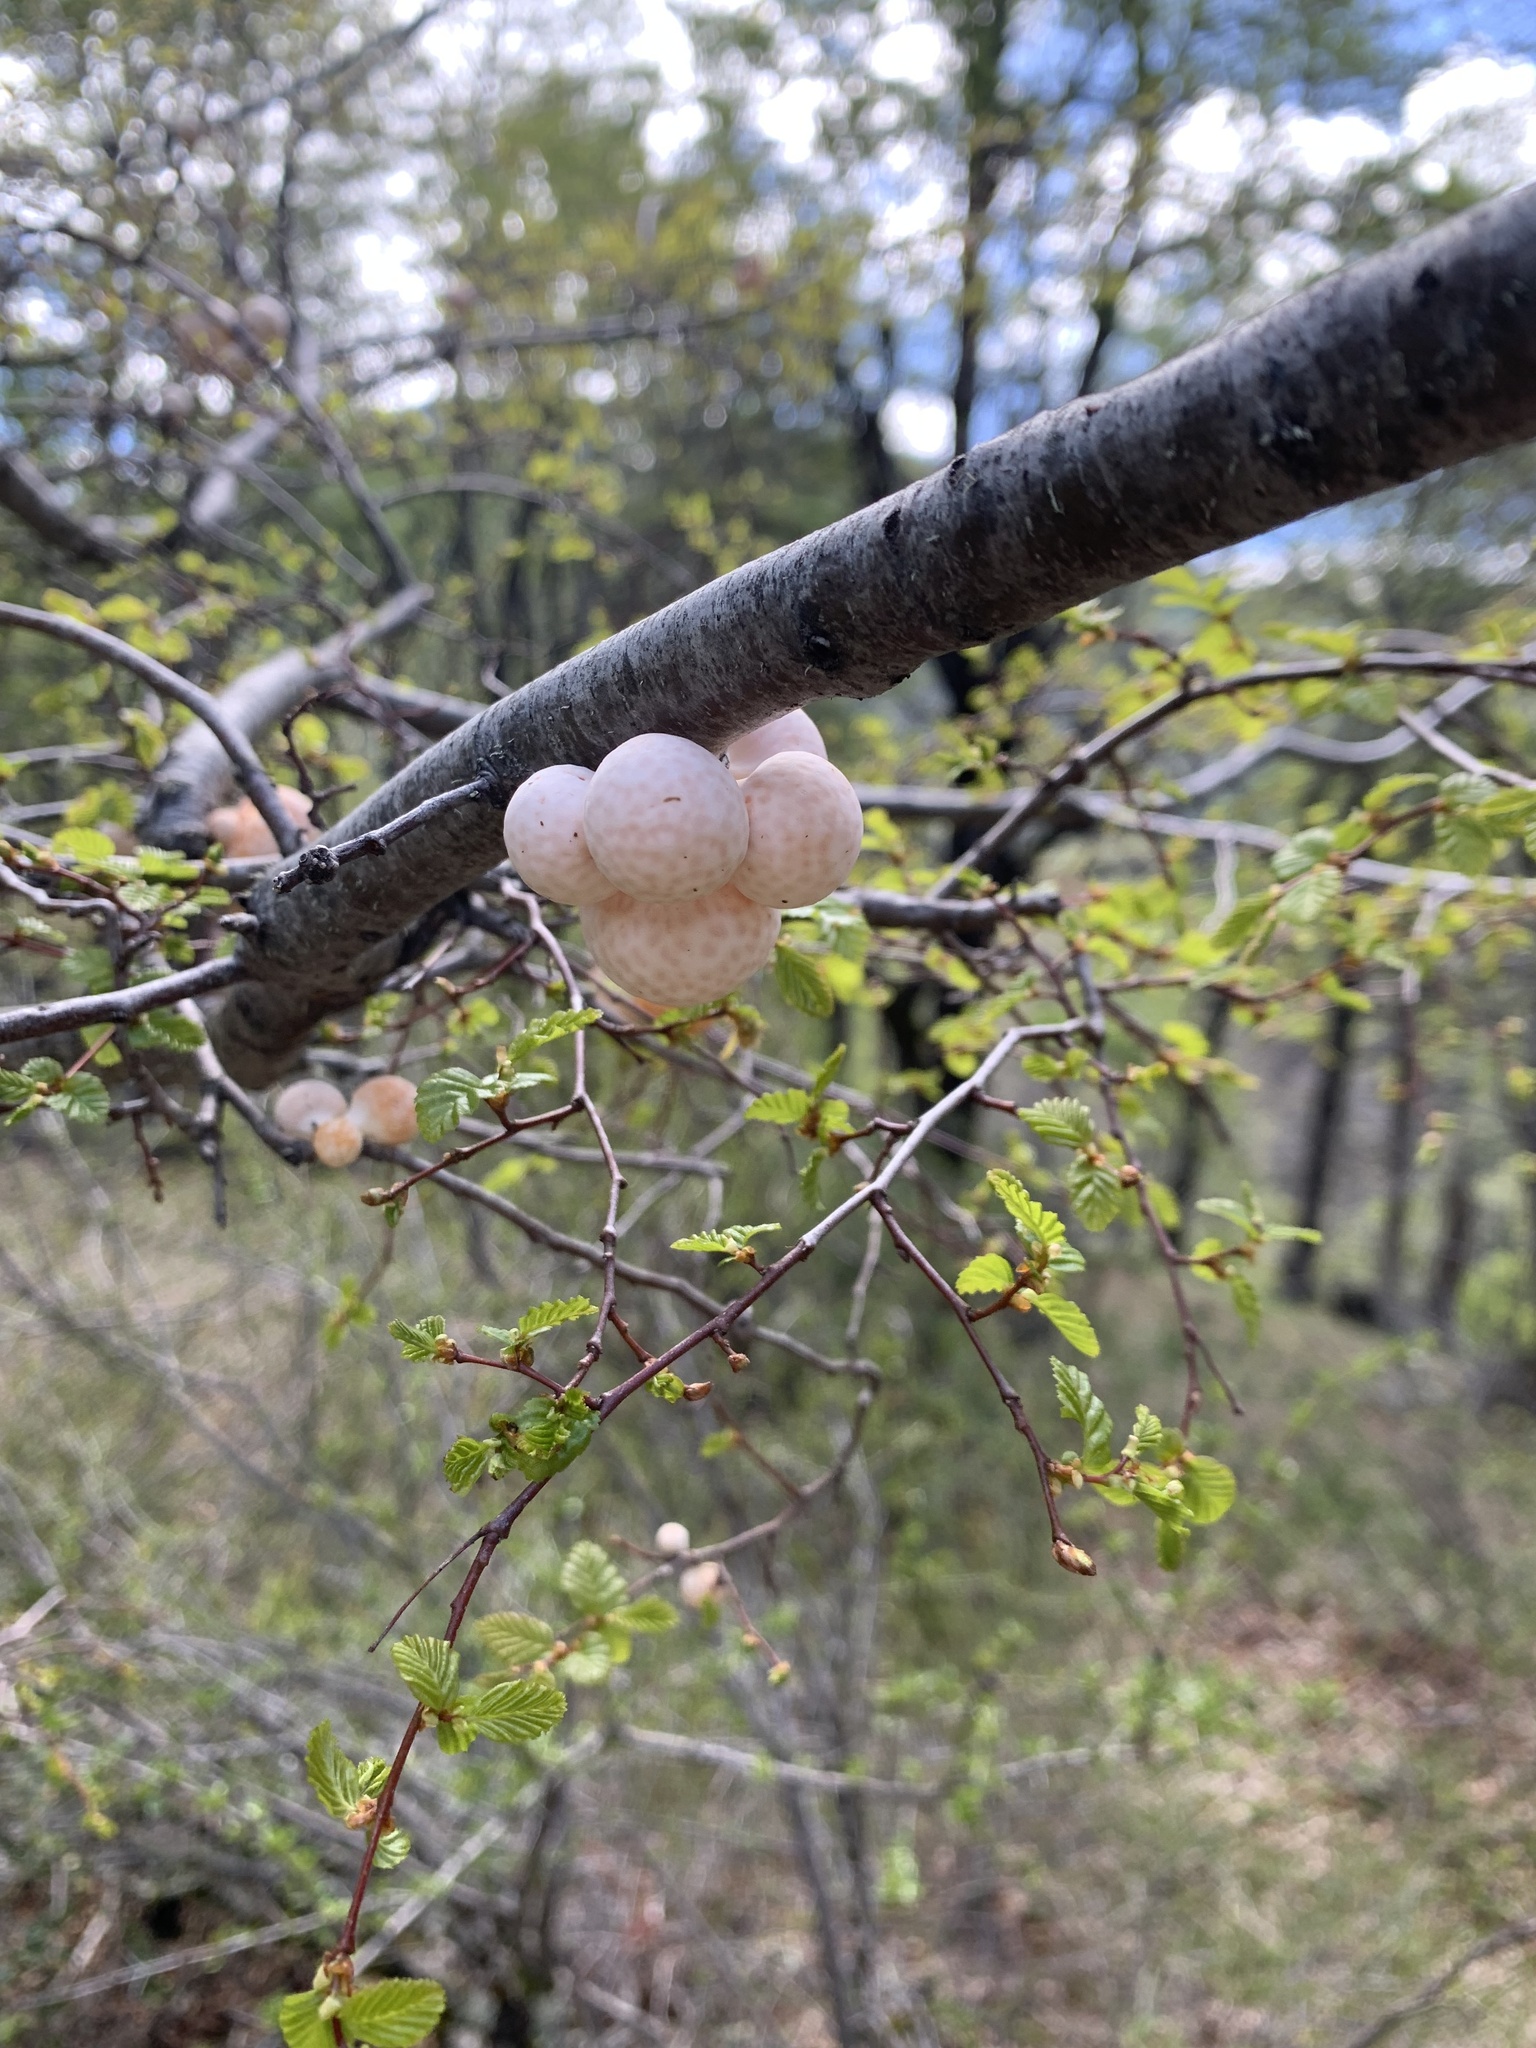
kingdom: Fungi
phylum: Ascomycota
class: Leotiomycetes
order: Cyttariales
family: Cyttariaceae
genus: Cyttaria
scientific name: Cyttaria espinosae
